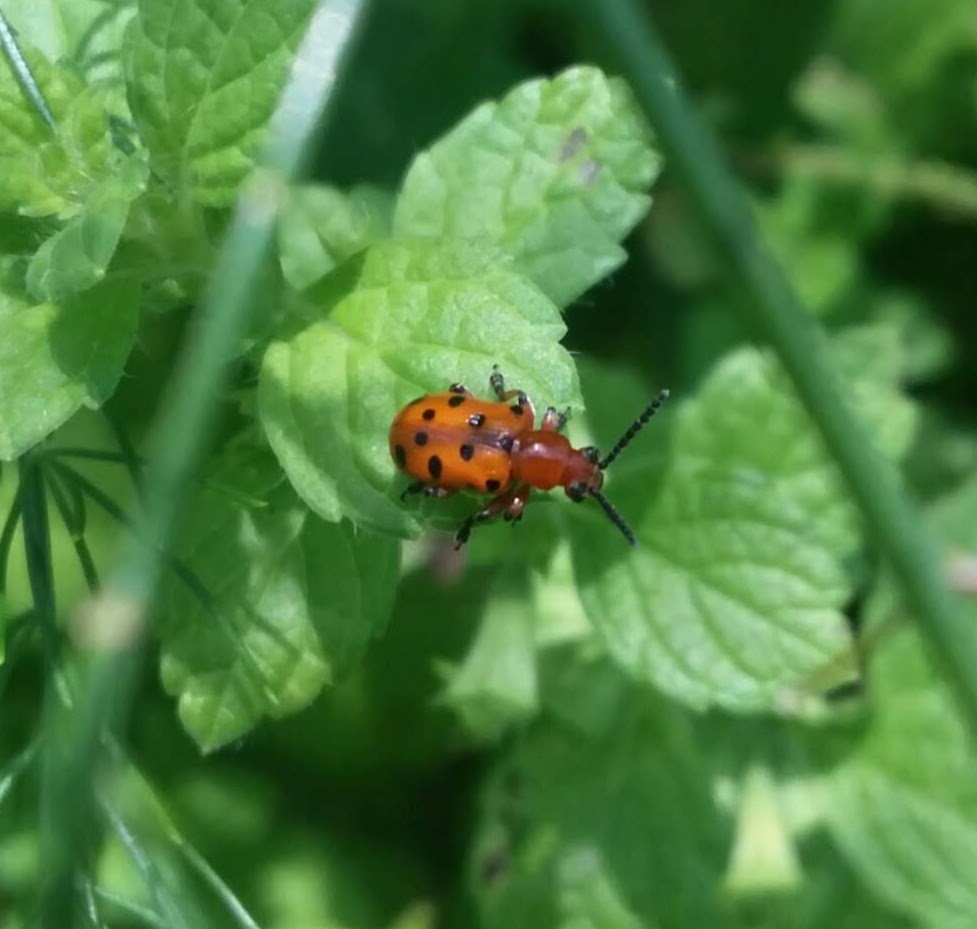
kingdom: Animalia
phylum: Arthropoda
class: Insecta
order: Coleoptera
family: Chrysomelidae
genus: Crioceris
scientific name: Crioceris duodecimpunctata
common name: Twelve-spotted asparagus beetle
